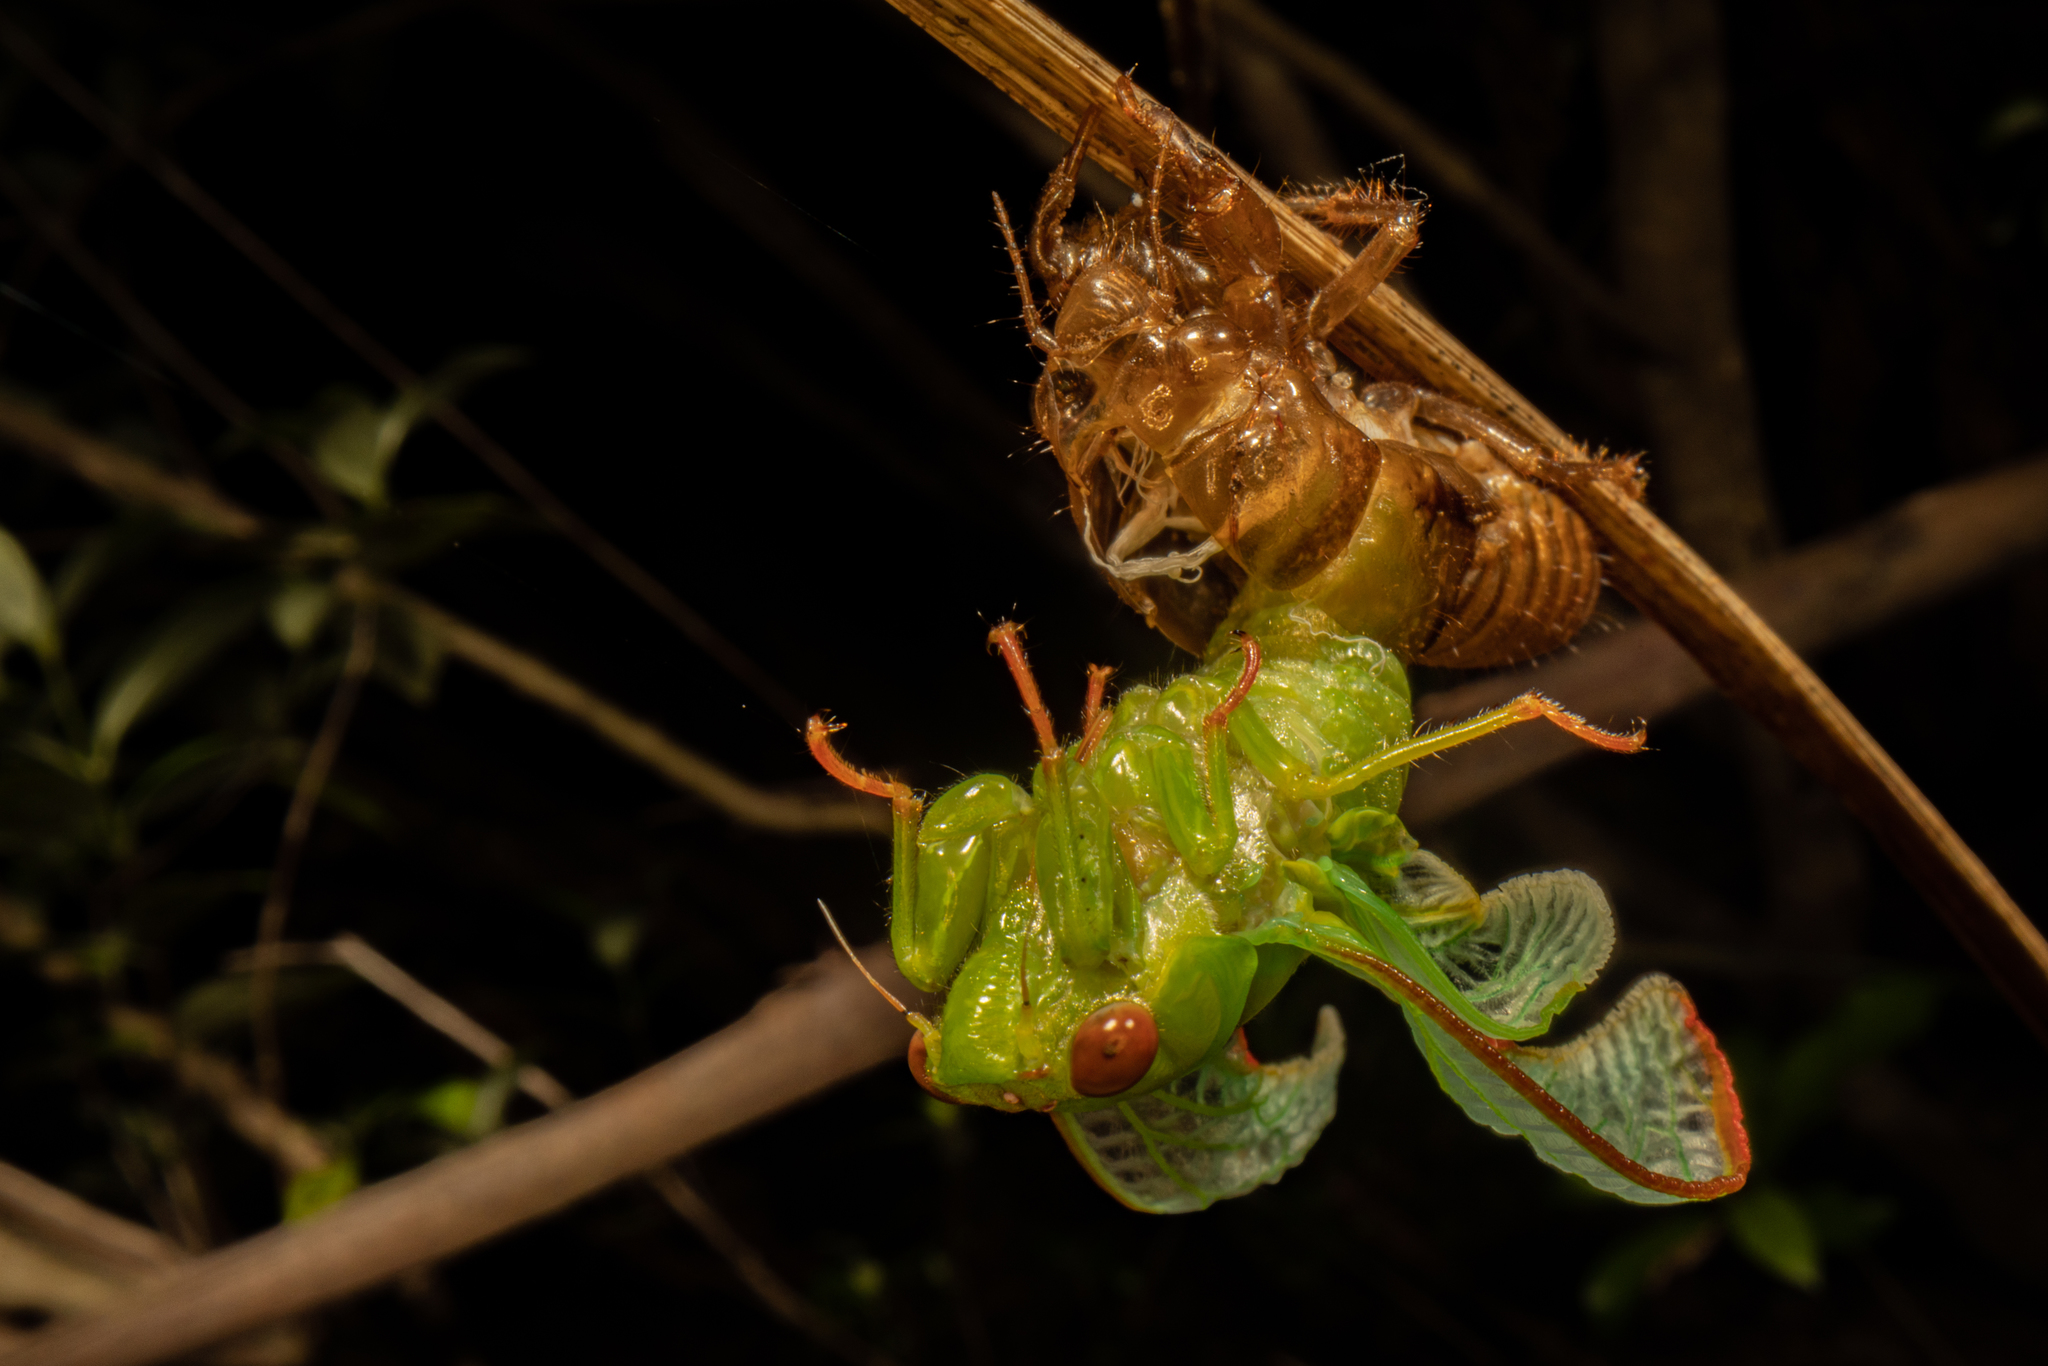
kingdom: Animalia
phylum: Arthropoda
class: Insecta
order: Hemiptera
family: Cicadidae
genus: Kikihia
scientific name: Kikihia dugdalei
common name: Dugdale's cicada
